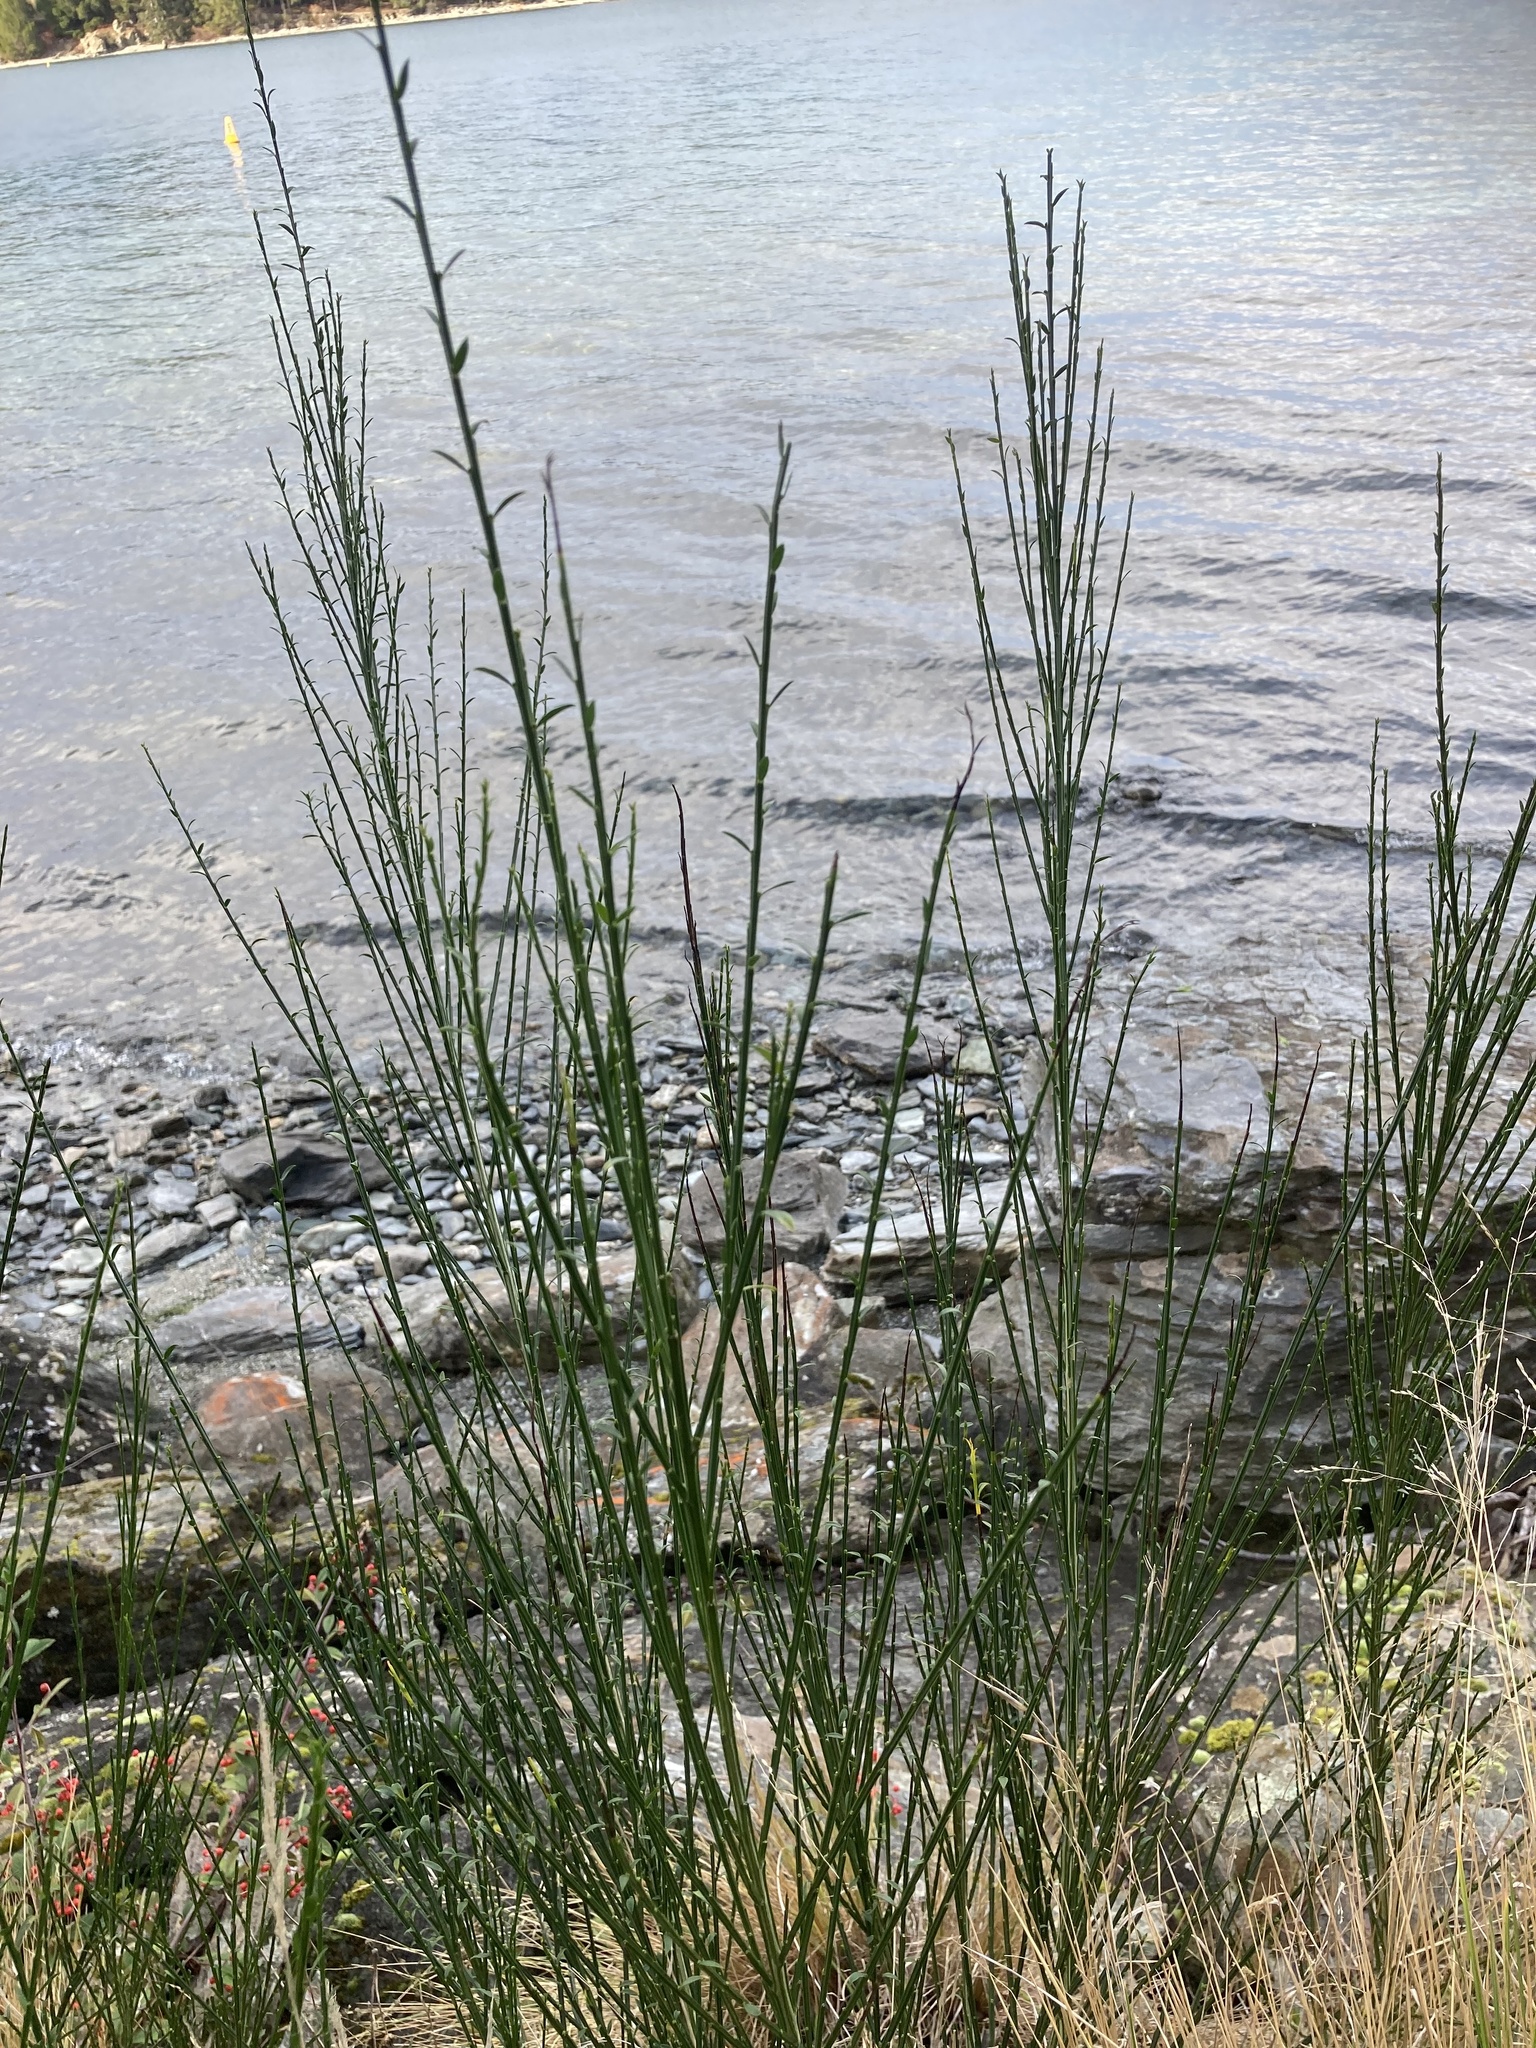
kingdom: Plantae
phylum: Tracheophyta
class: Magnoliopsida
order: Fabales
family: Fabaceae
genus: Cytisus
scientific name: Cytisus scoparius
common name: Scotch broom
